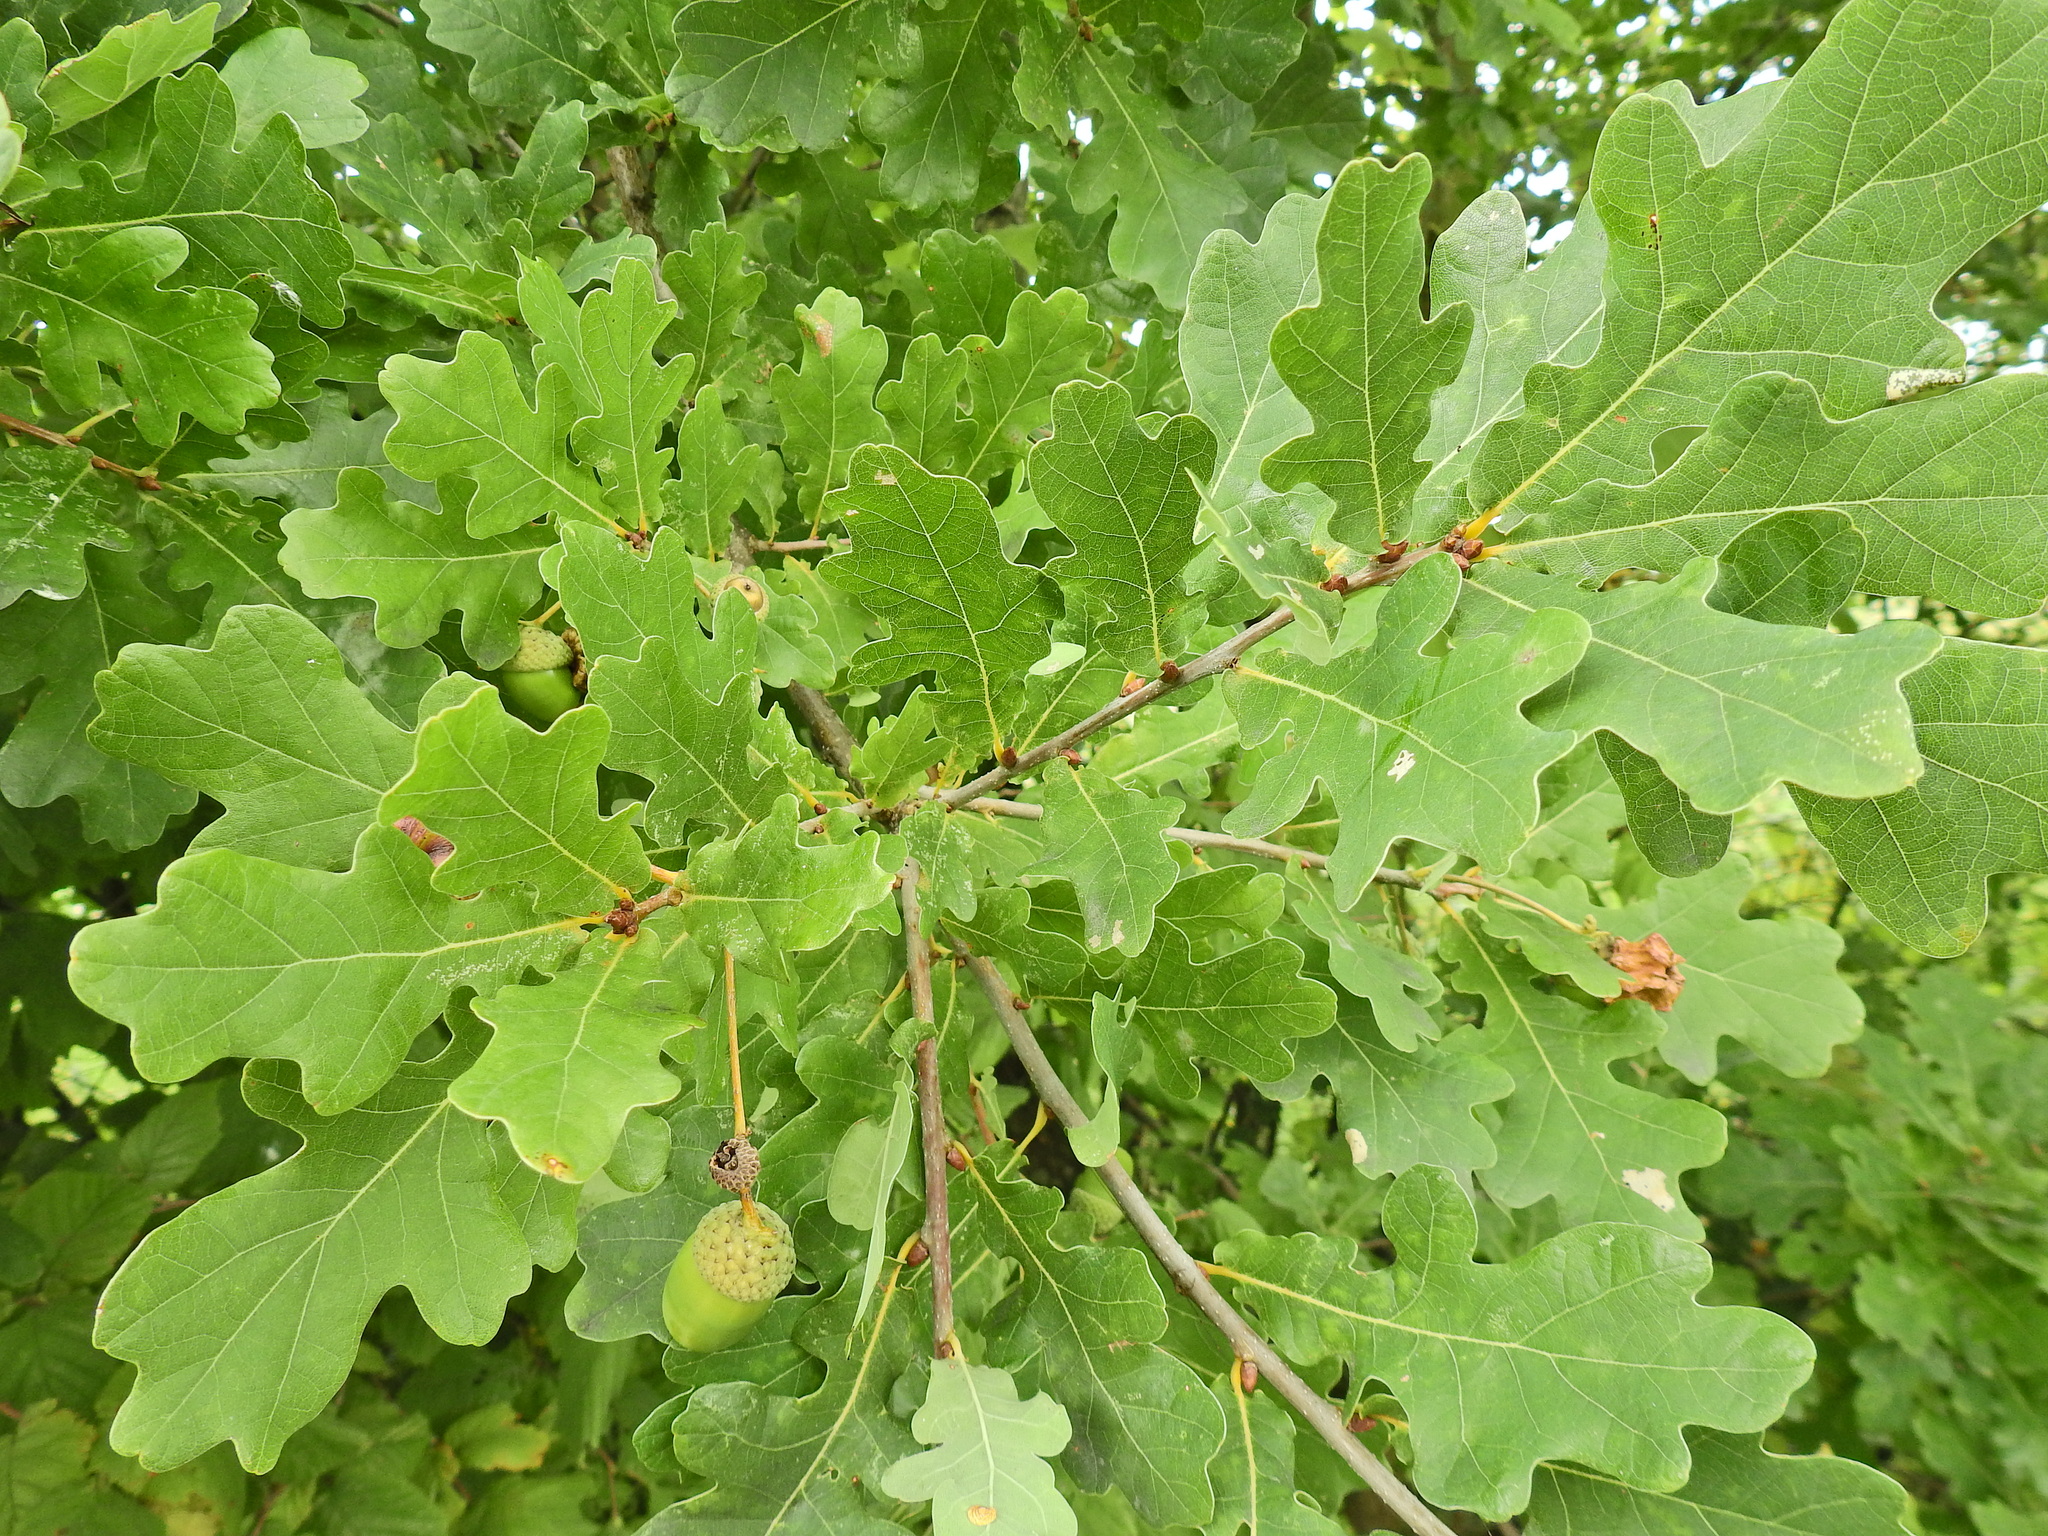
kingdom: Plantae
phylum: Tracheophyta
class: Magnoliopsida
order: Fagales
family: Fagaceae
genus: Quercus
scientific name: Quercus robur
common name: Pedunculate oak
